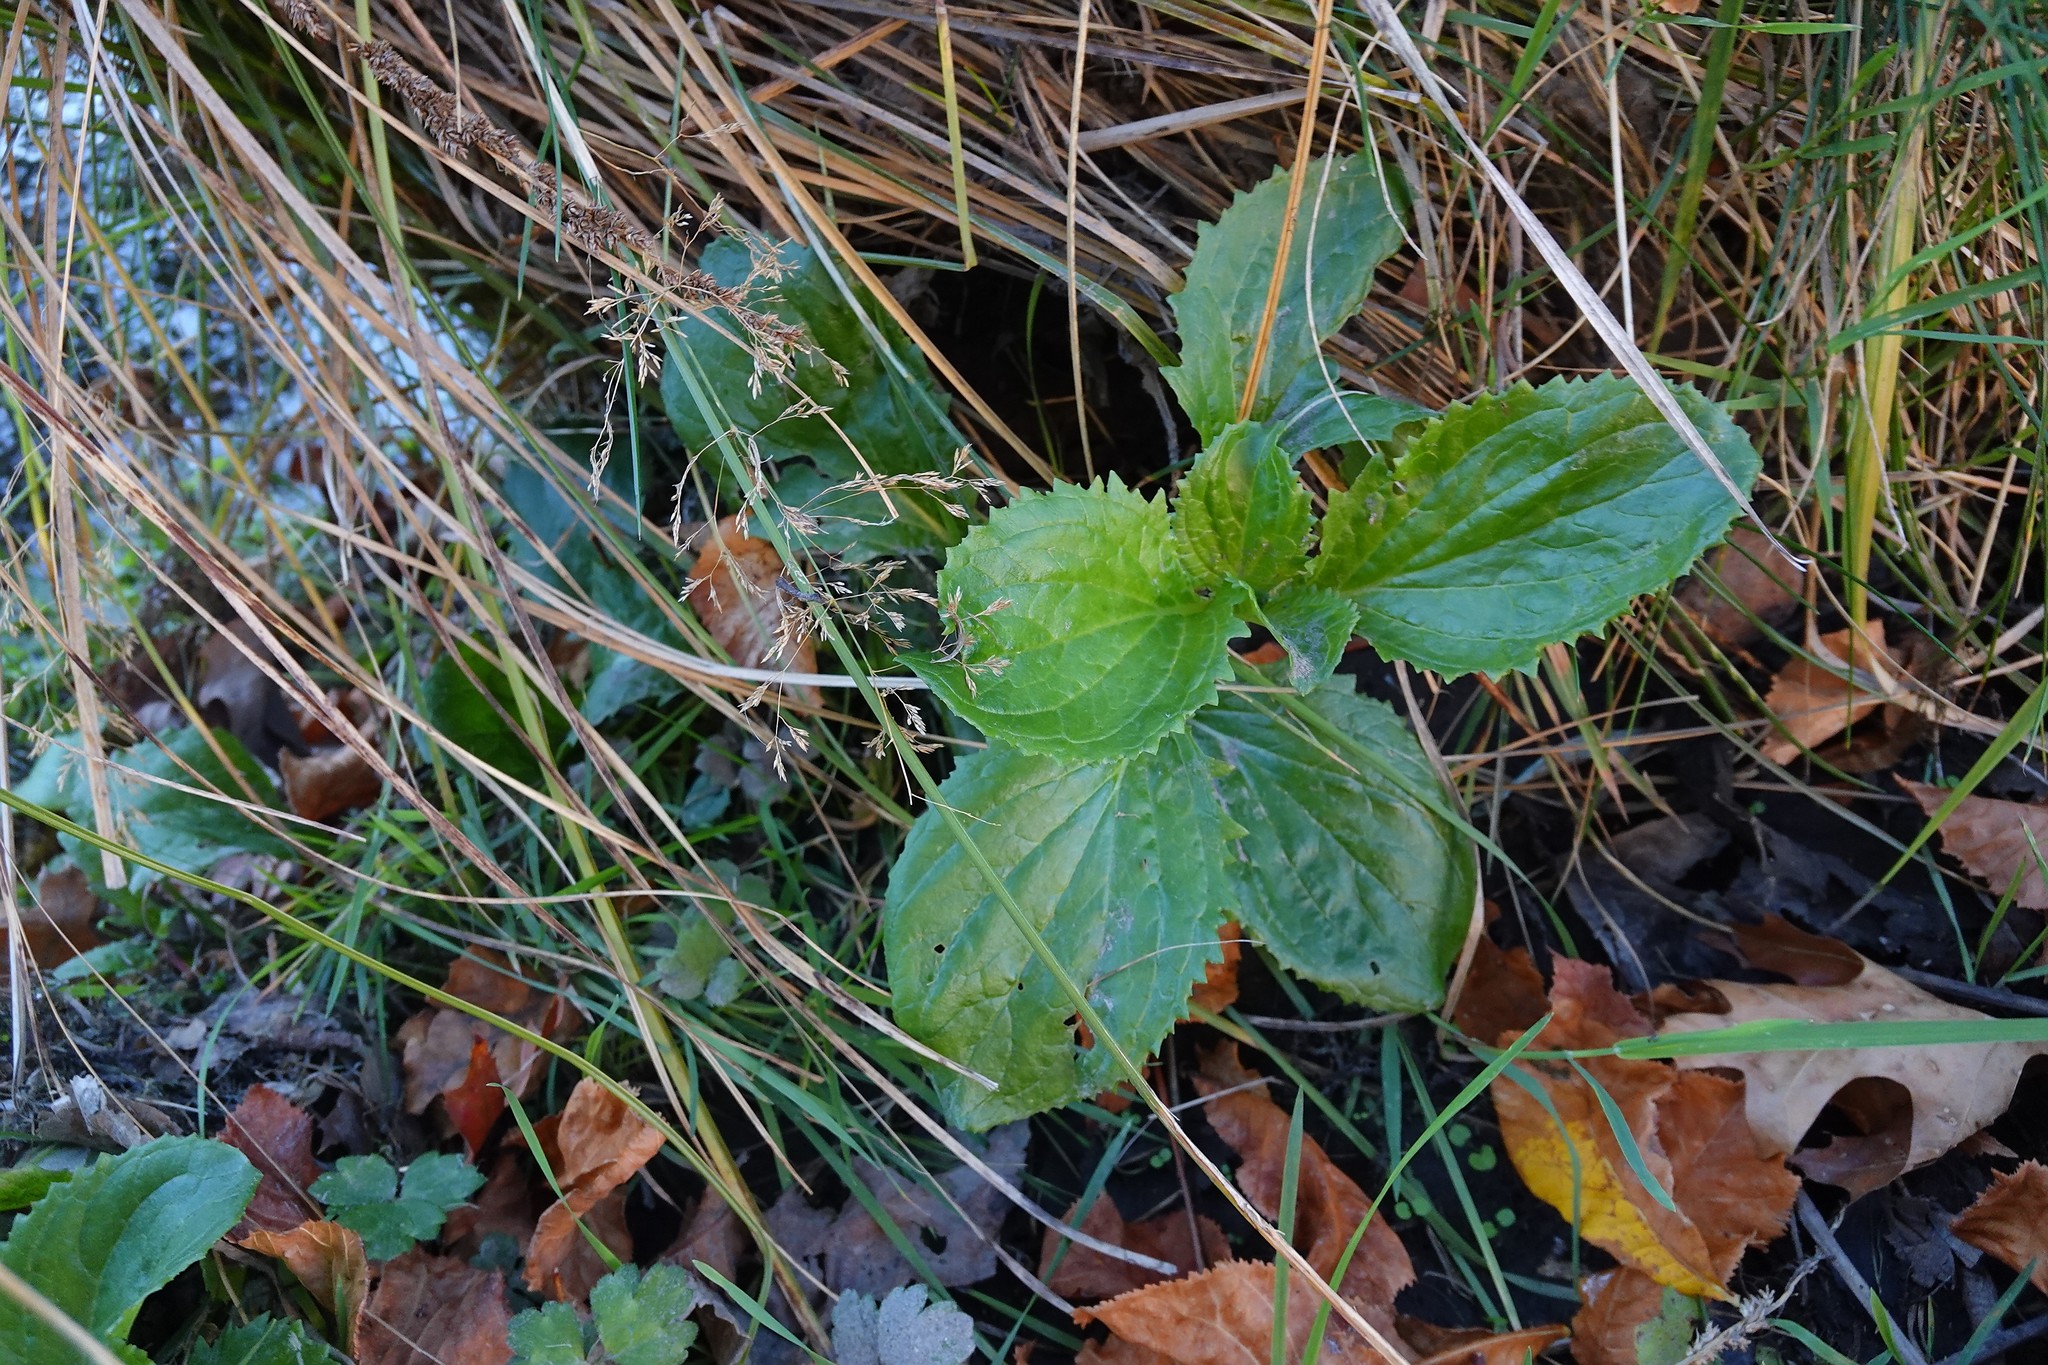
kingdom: Plantae
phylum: Tracheophyta
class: Magnoliopsida
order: Lamiales
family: Phrymaceae
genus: Erythranthe
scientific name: Erythranthe guttata
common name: Monkeyflower
